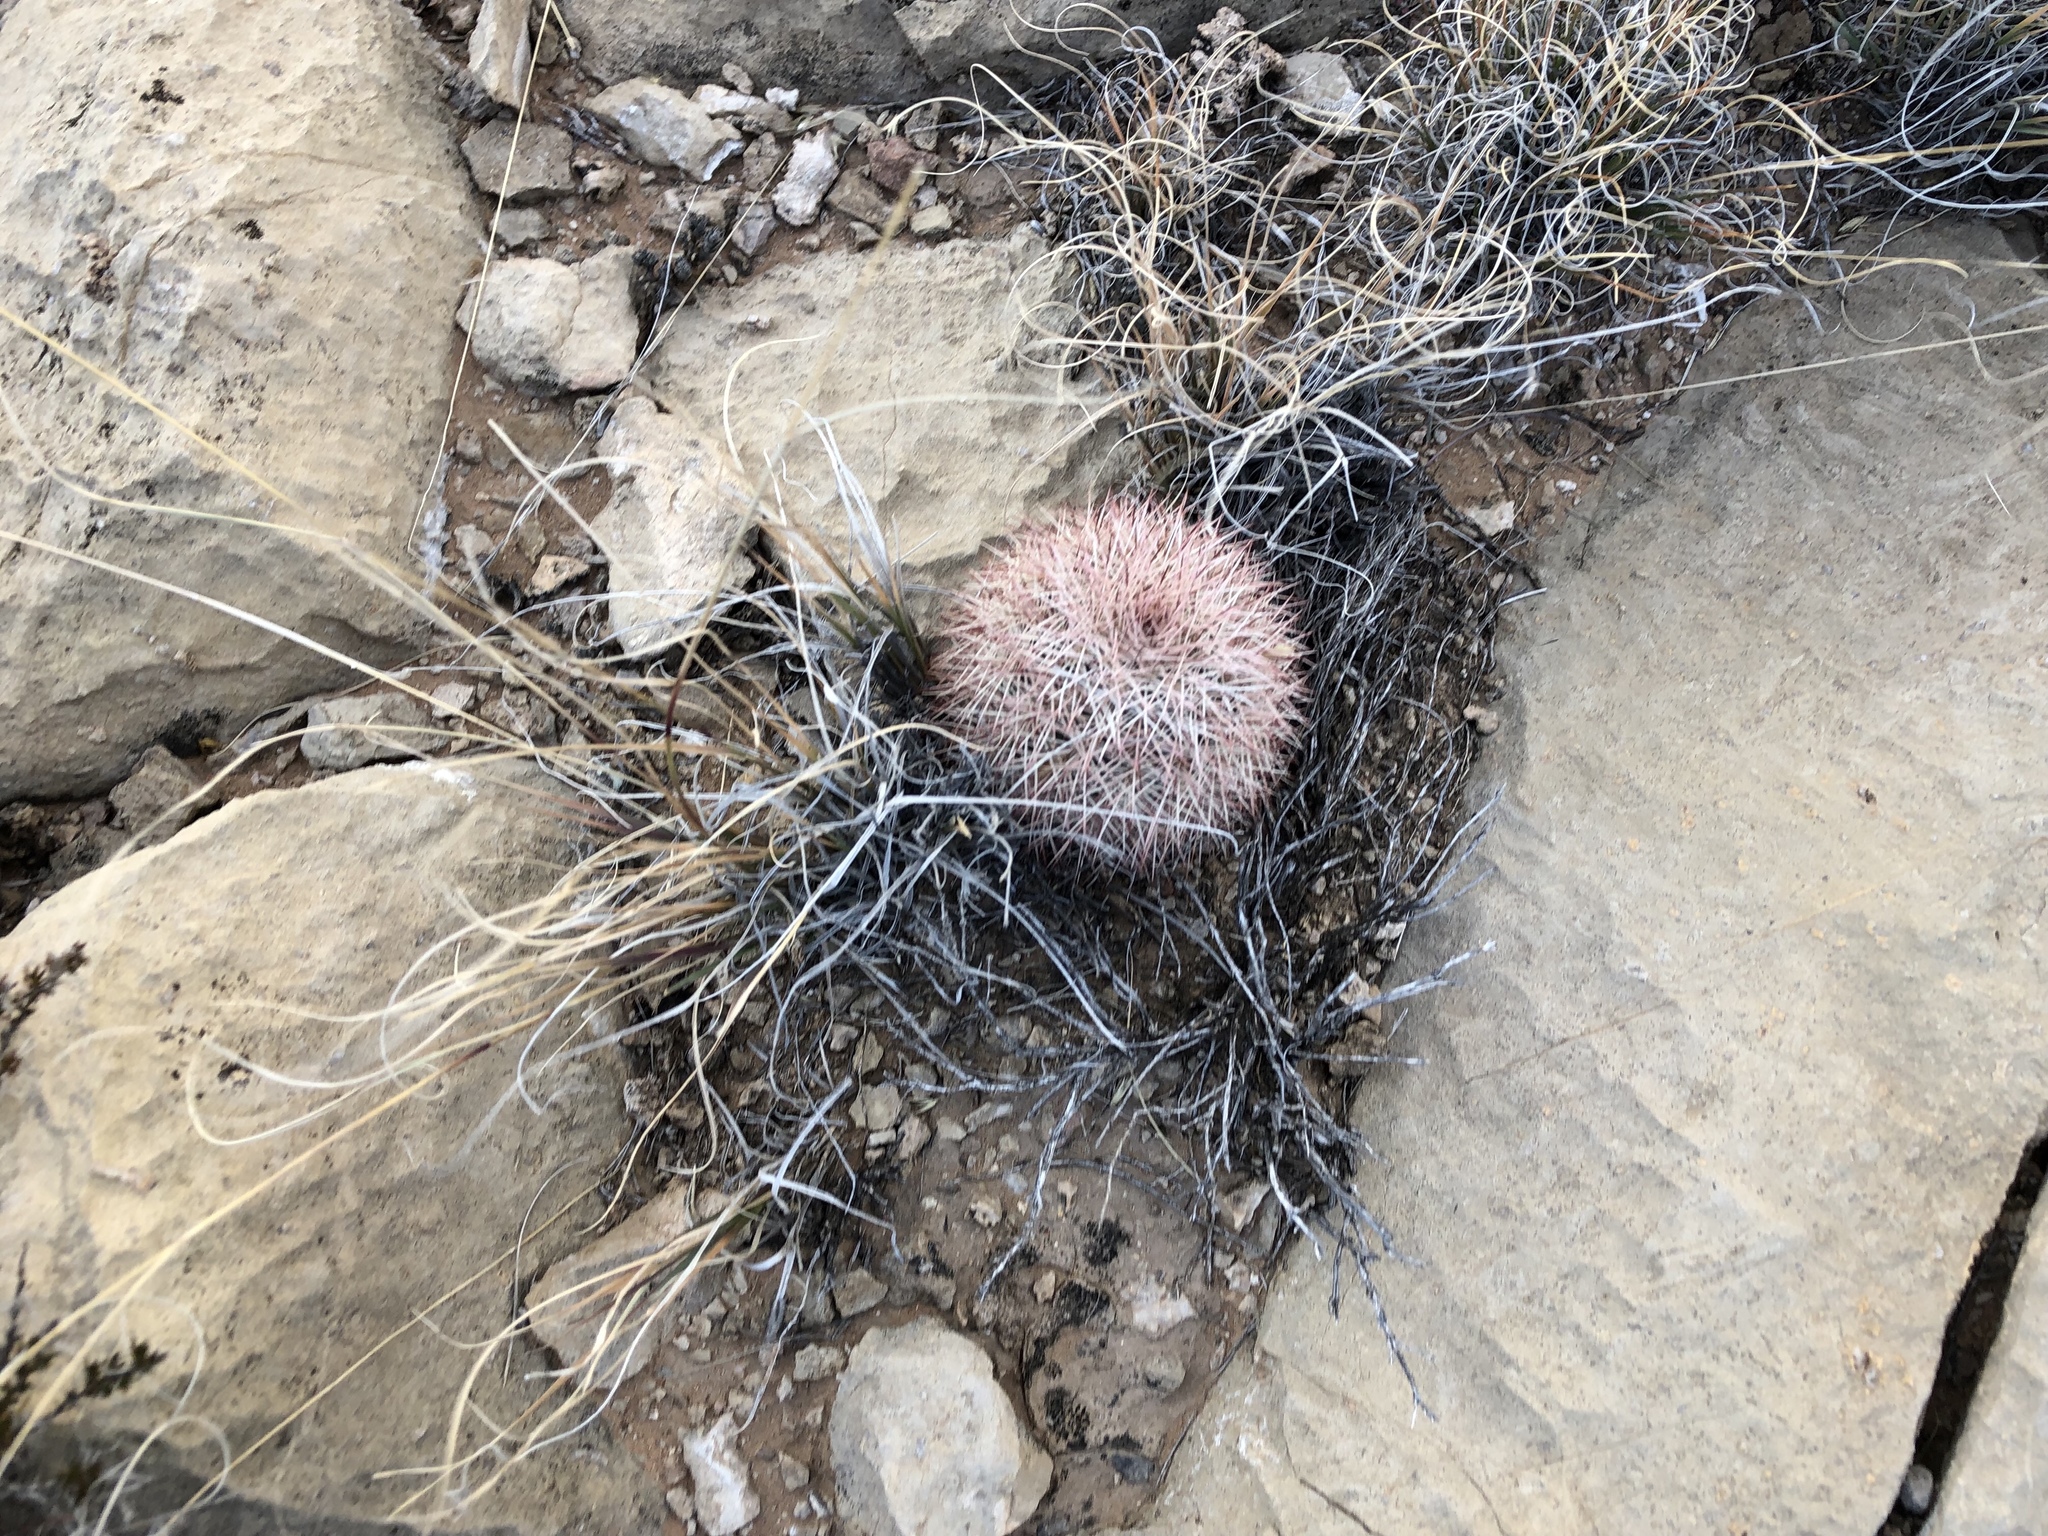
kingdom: Plantae
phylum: Tracheophyta
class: Magnoliopsida
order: Caryophyllales
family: Cactaceae
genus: Echinocereus
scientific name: Echinocereus dasyacanthus
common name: Spiny hedgehog cactus
